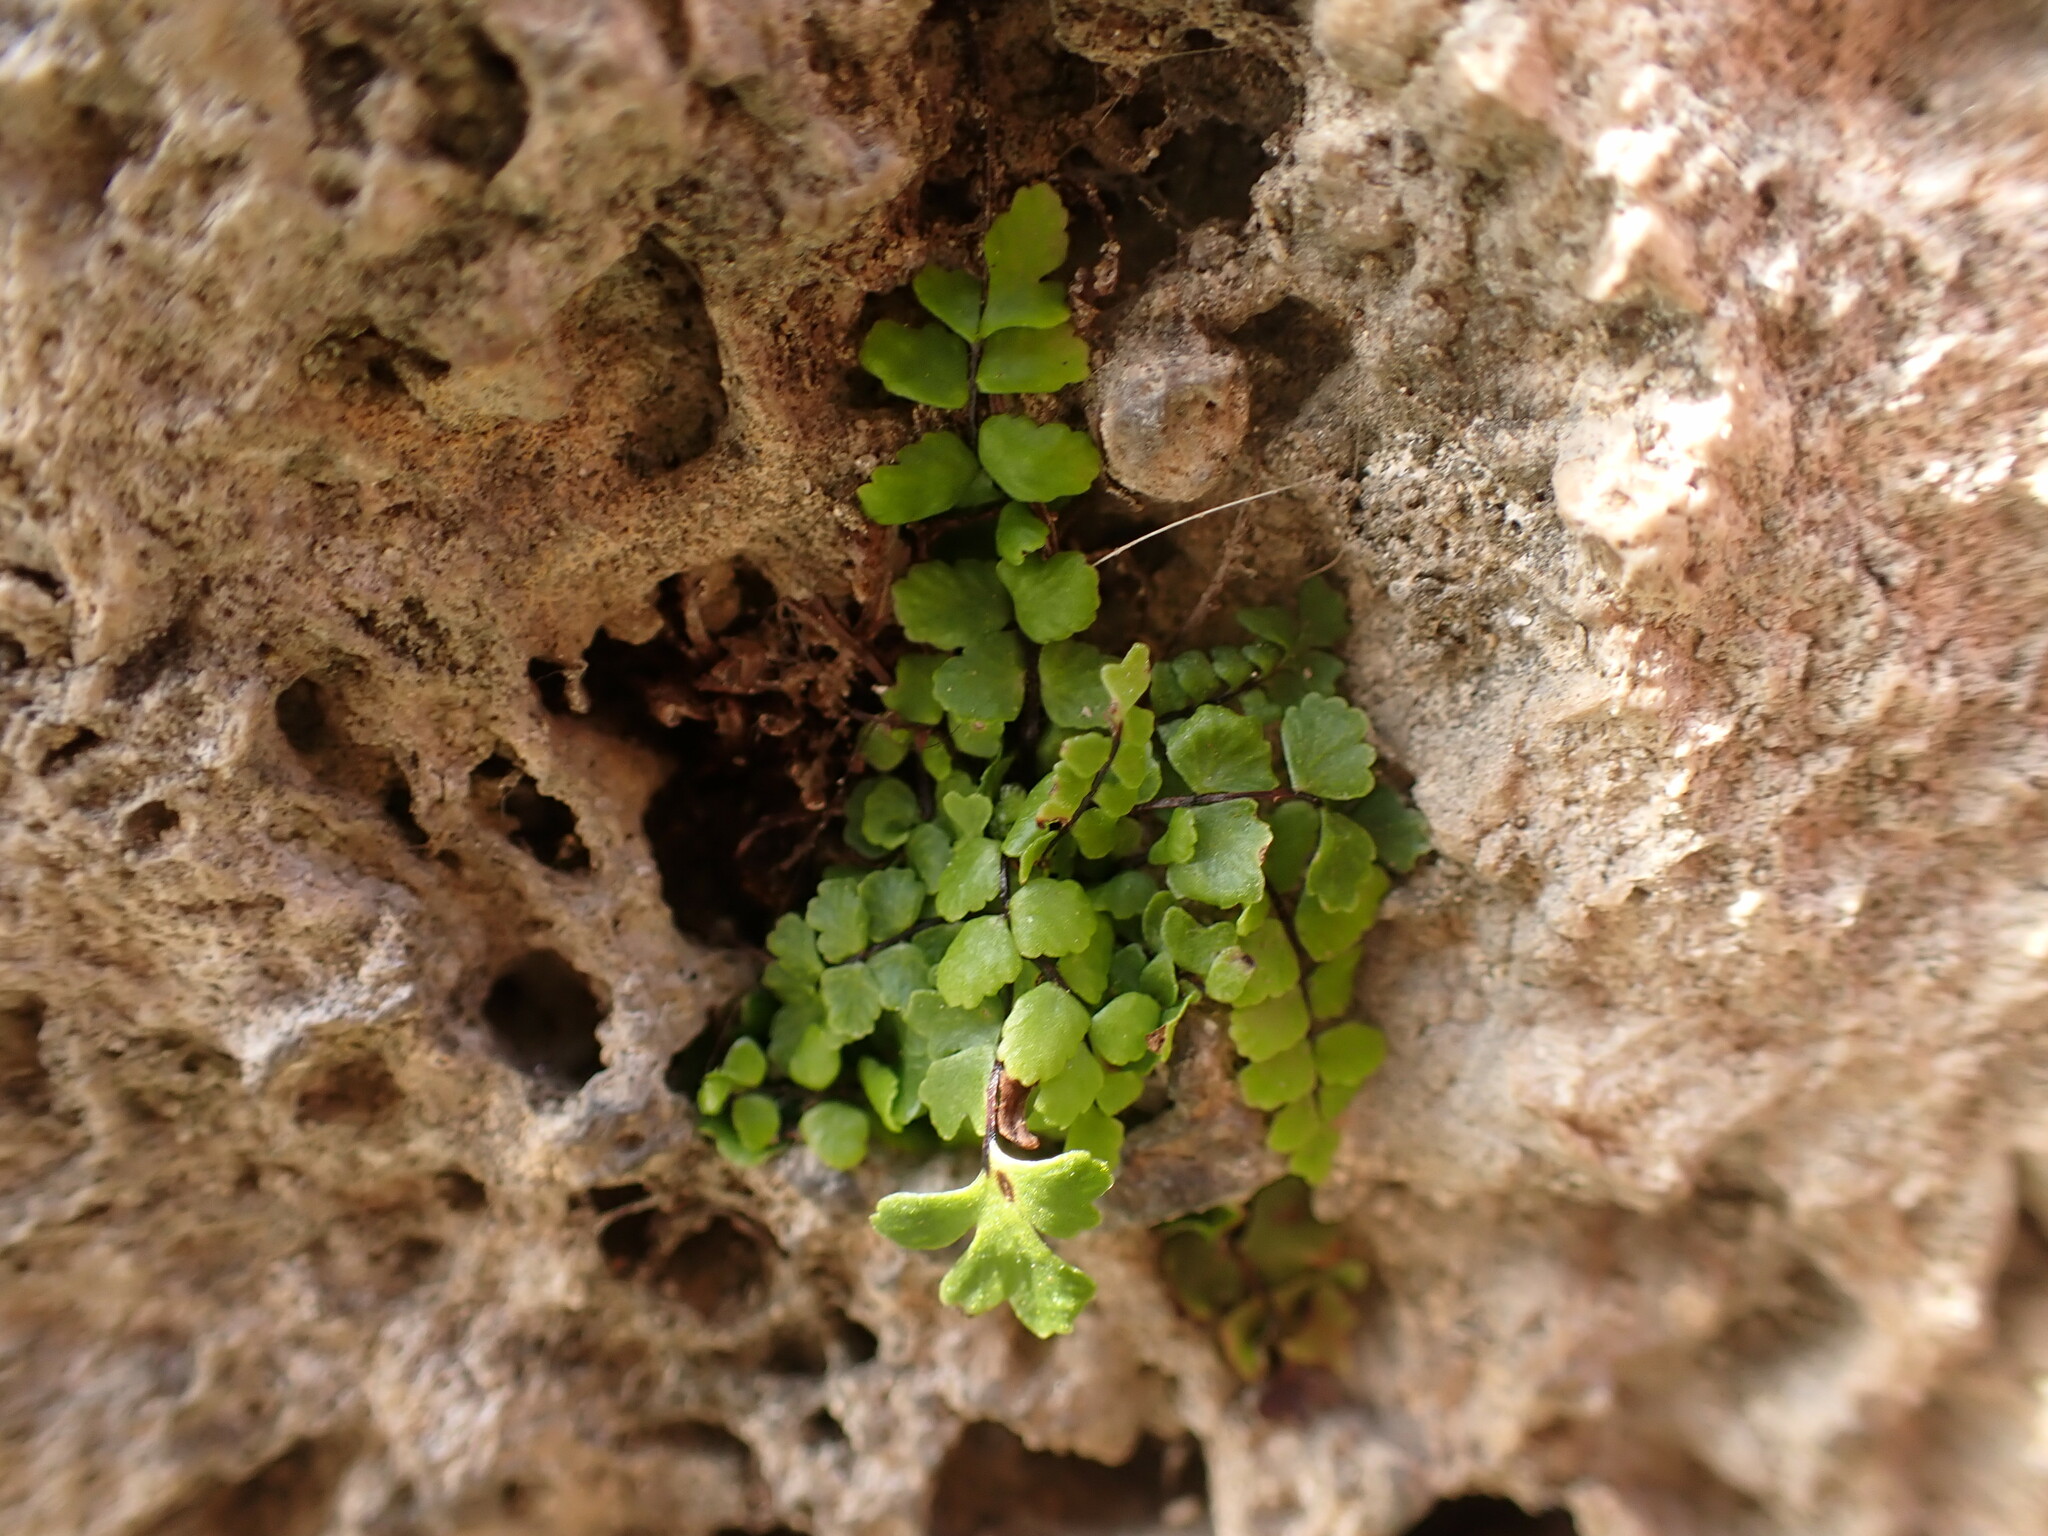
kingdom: Plantae
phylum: Tracheophyta
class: Polypodiopsida
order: Polypodiales
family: Aspleniaceae
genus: Asplenium
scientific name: Asplenium trichomanes
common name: Maidenhair spleenwort
